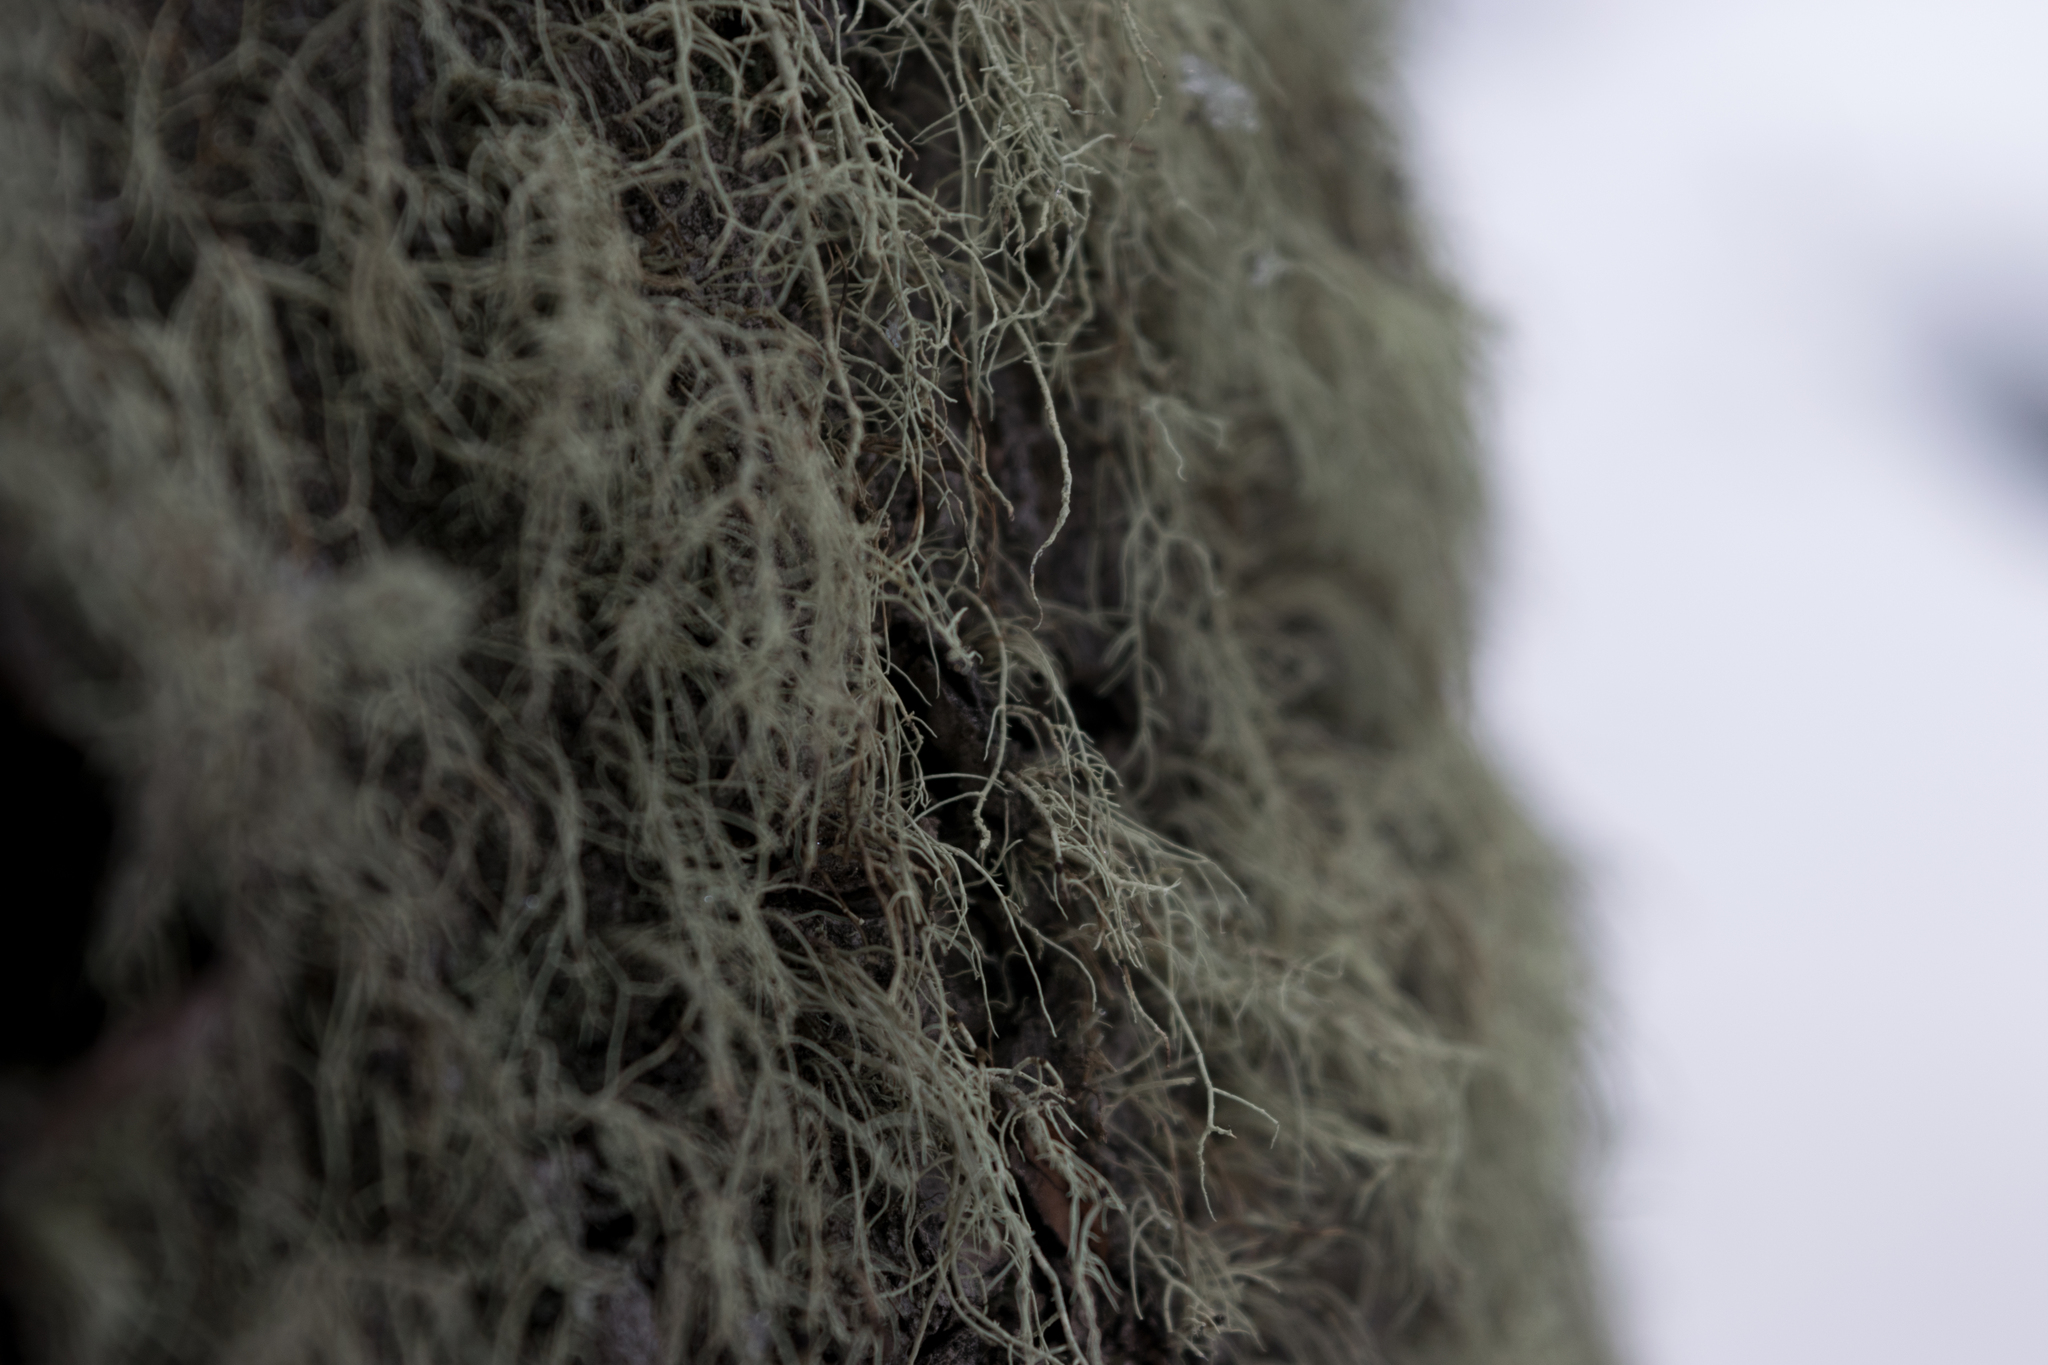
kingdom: Fungi
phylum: Ascomycota
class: Lecanoromycetes
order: Lecanorales
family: Parmeliaceae
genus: Usnea
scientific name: Usnea hirta
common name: Bristly beard lichen
